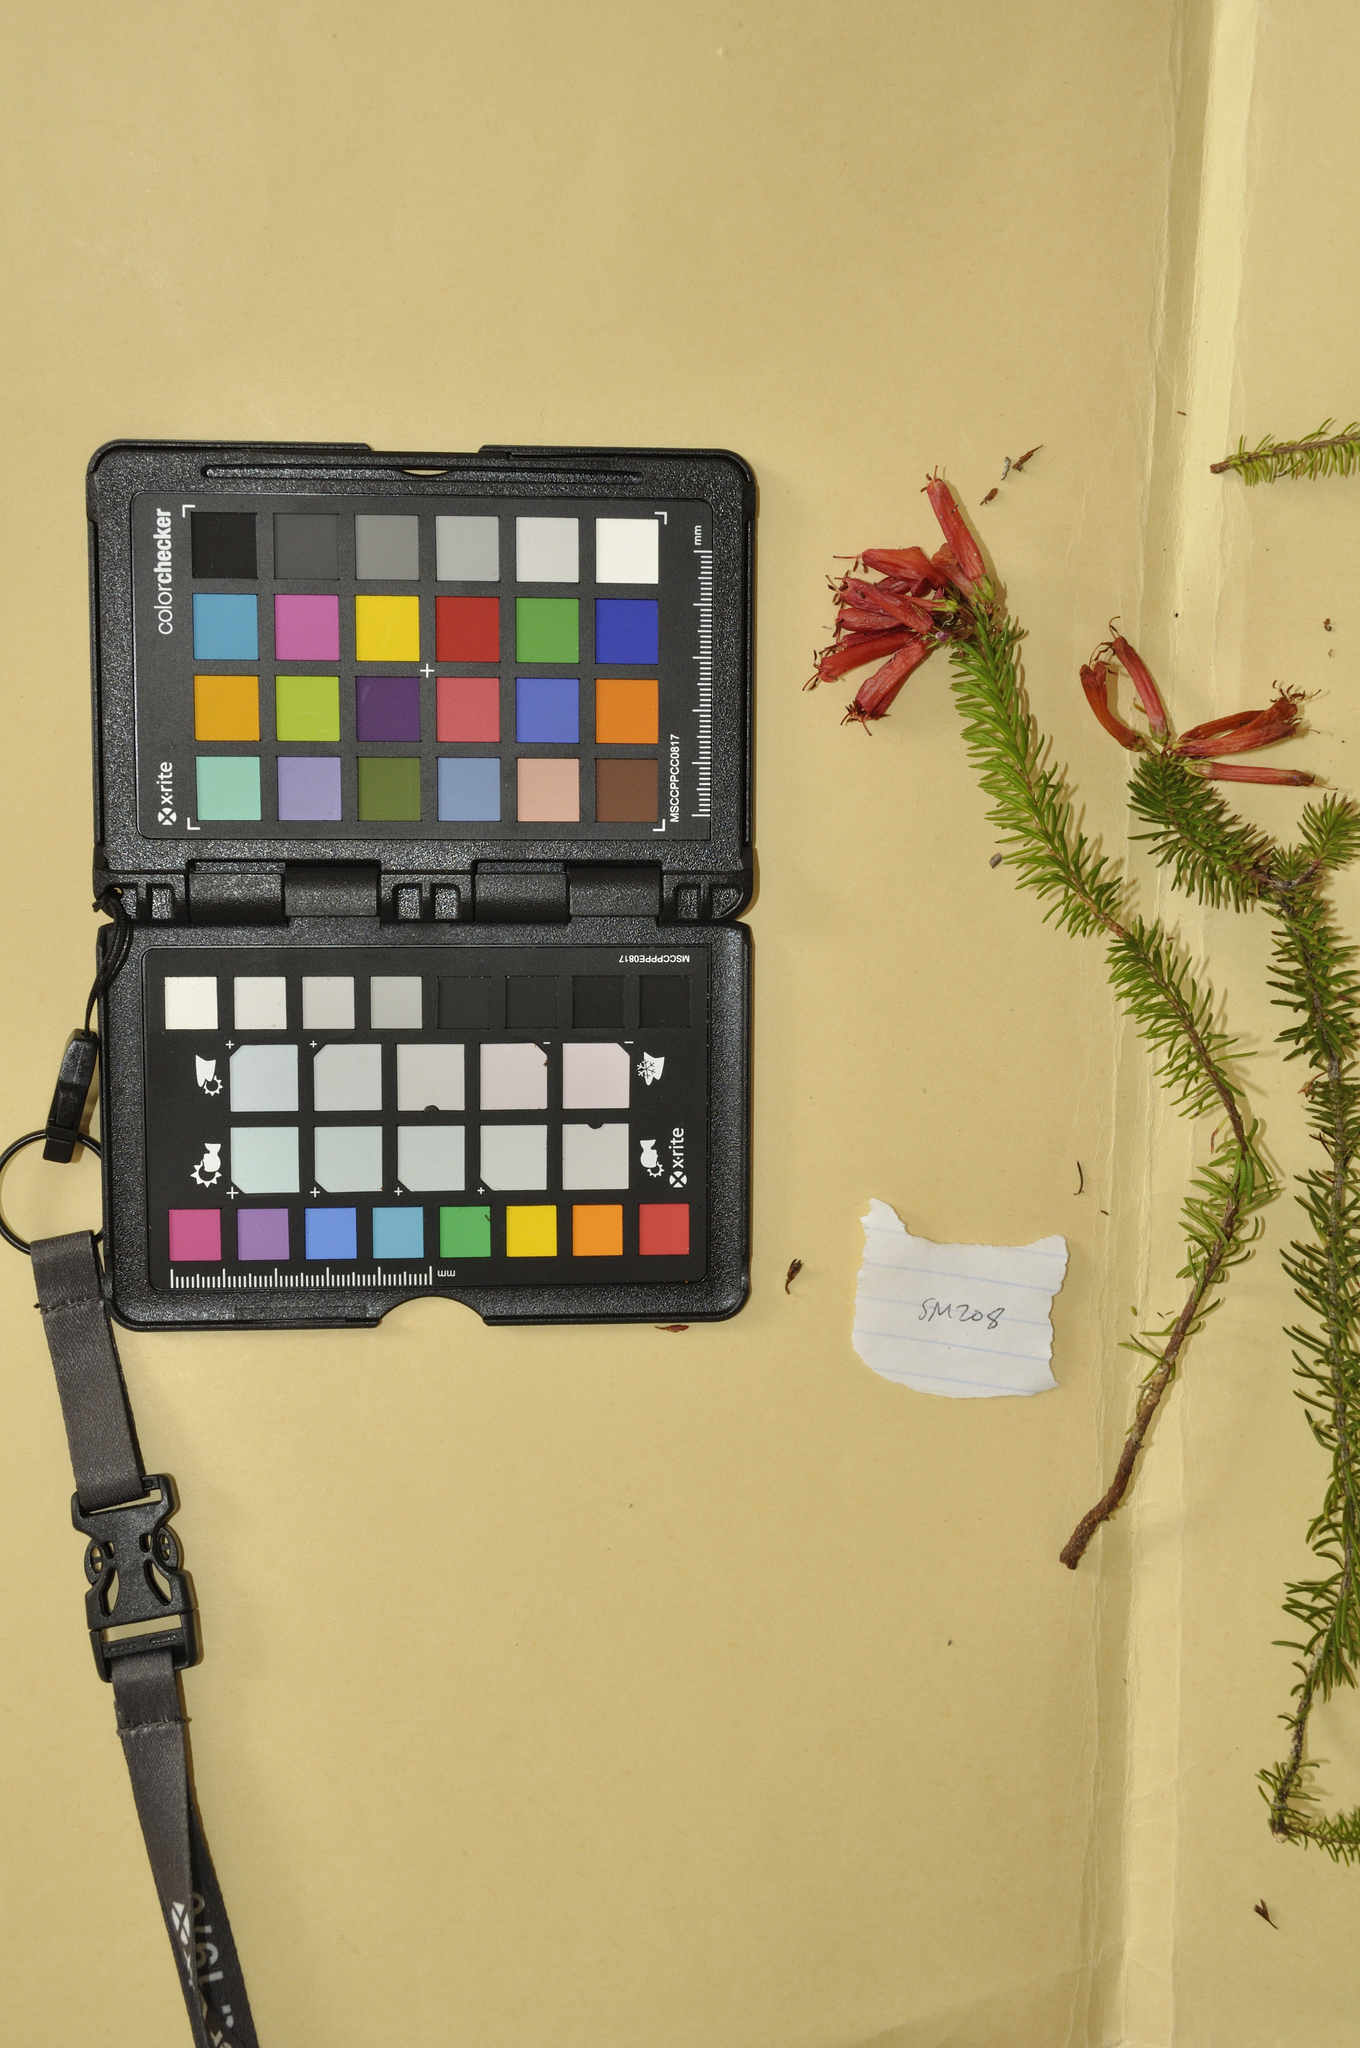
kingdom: Plantae
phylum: Tracheophyta
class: Magnoliopsida
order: Ericales
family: Ericaceae
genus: Erica
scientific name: Erica nevillei
